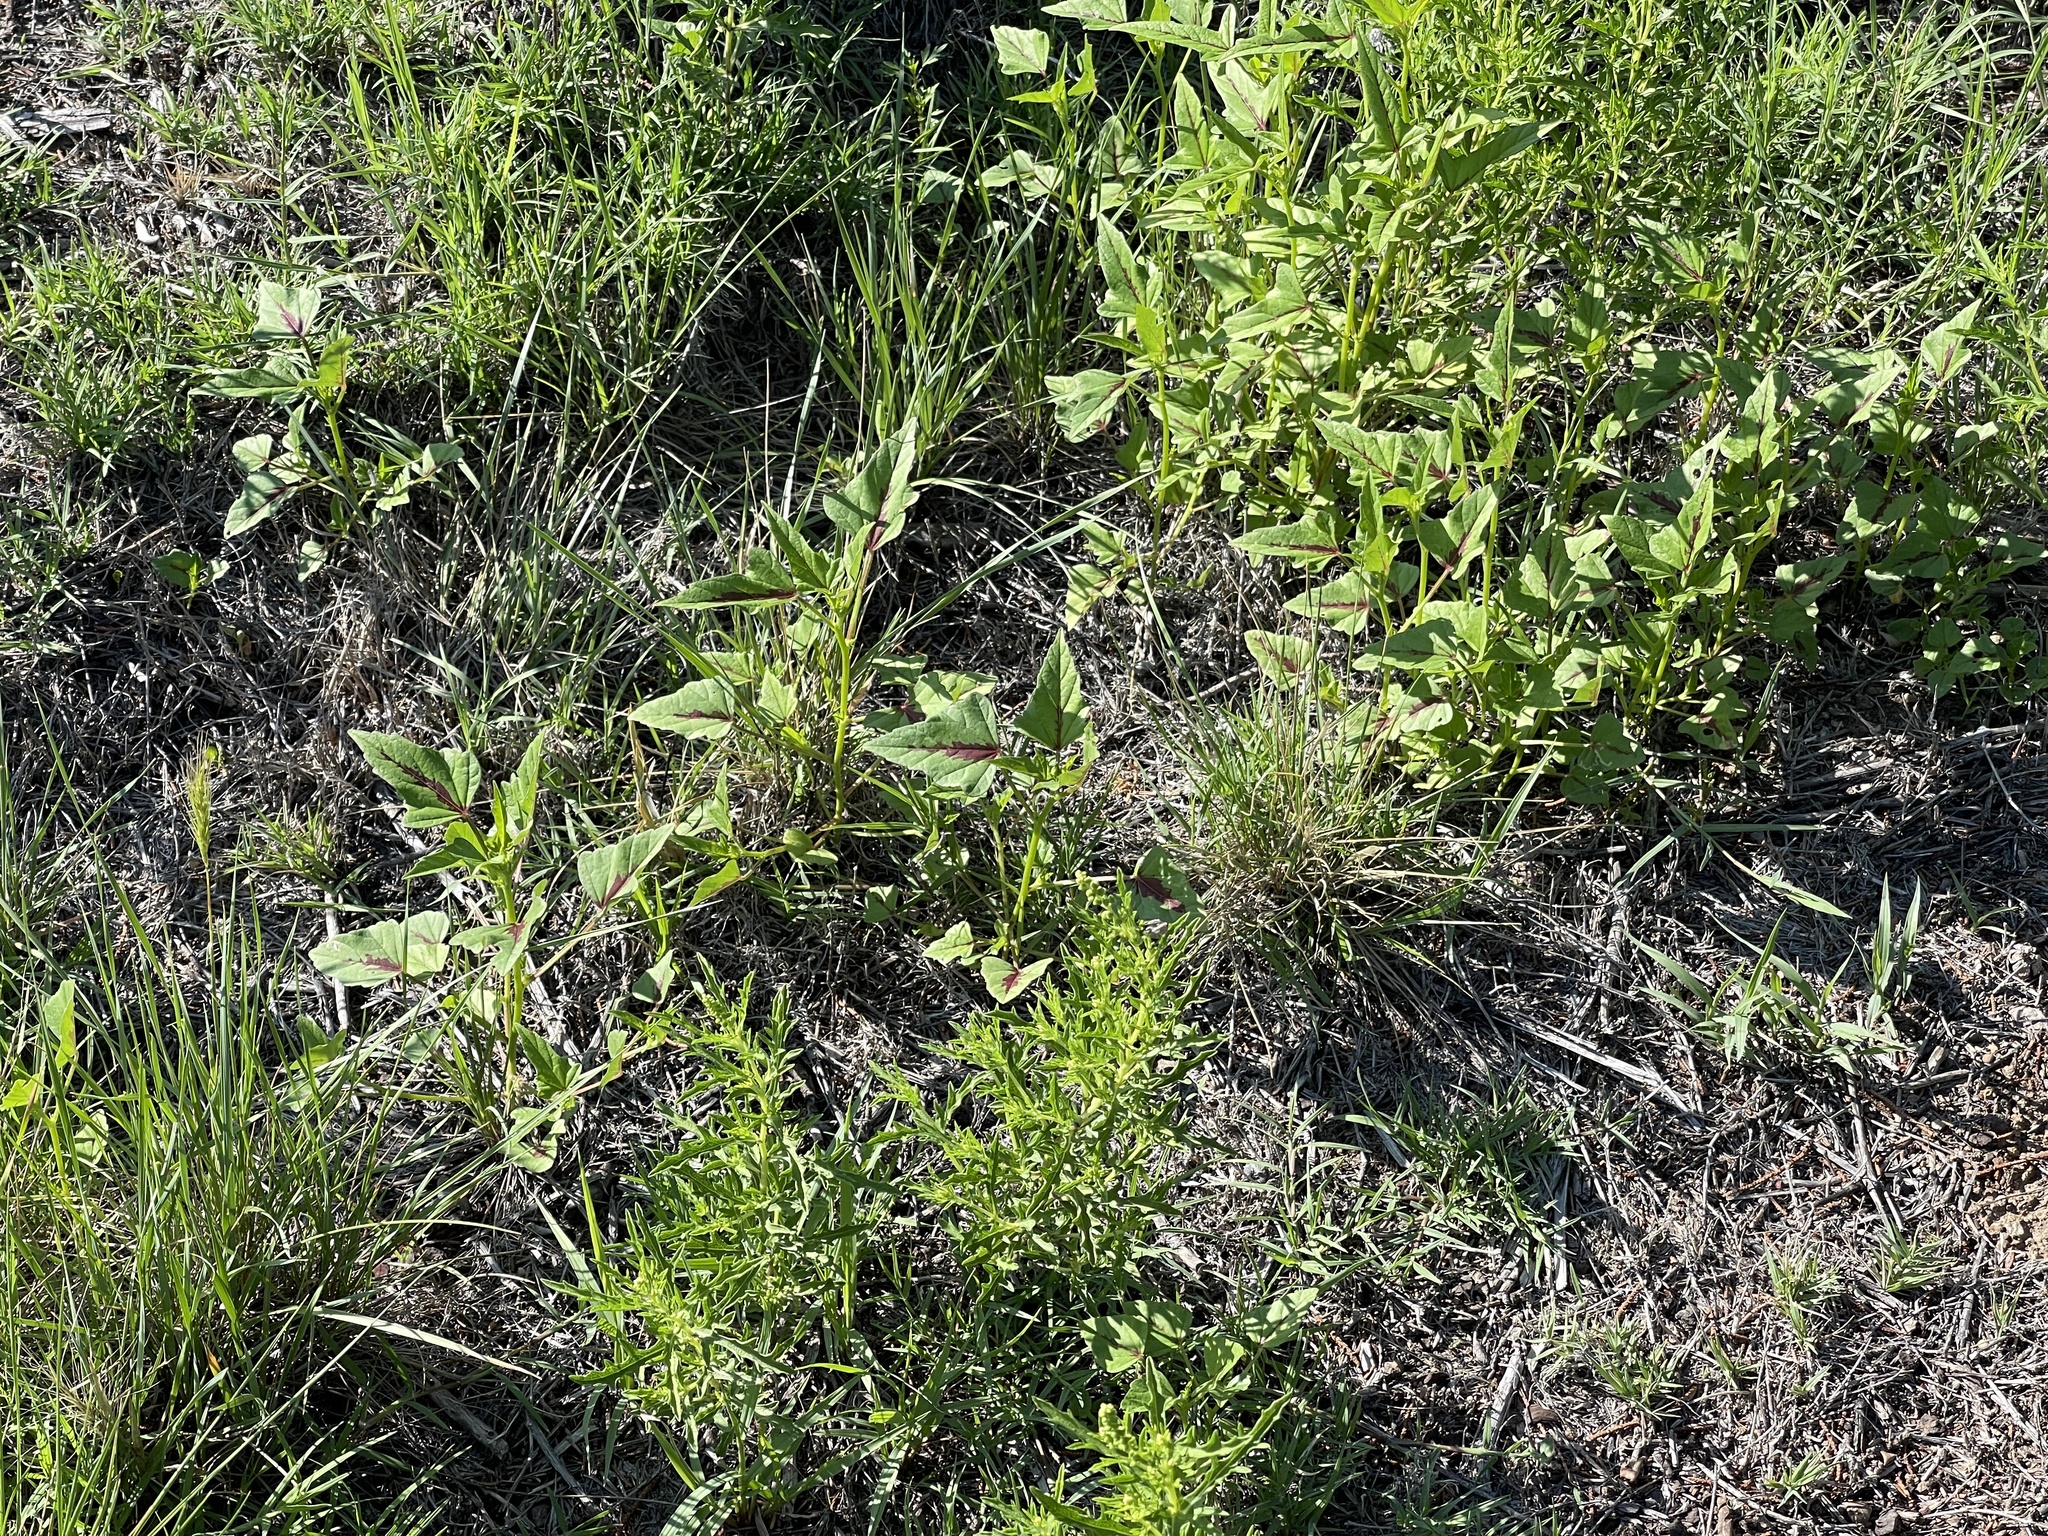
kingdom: Plantae
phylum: Tracheophyta
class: Magnoliopsida
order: Malvales
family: Malvaceae
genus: Anoda
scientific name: Anoda cristata
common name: Spurred anoda
